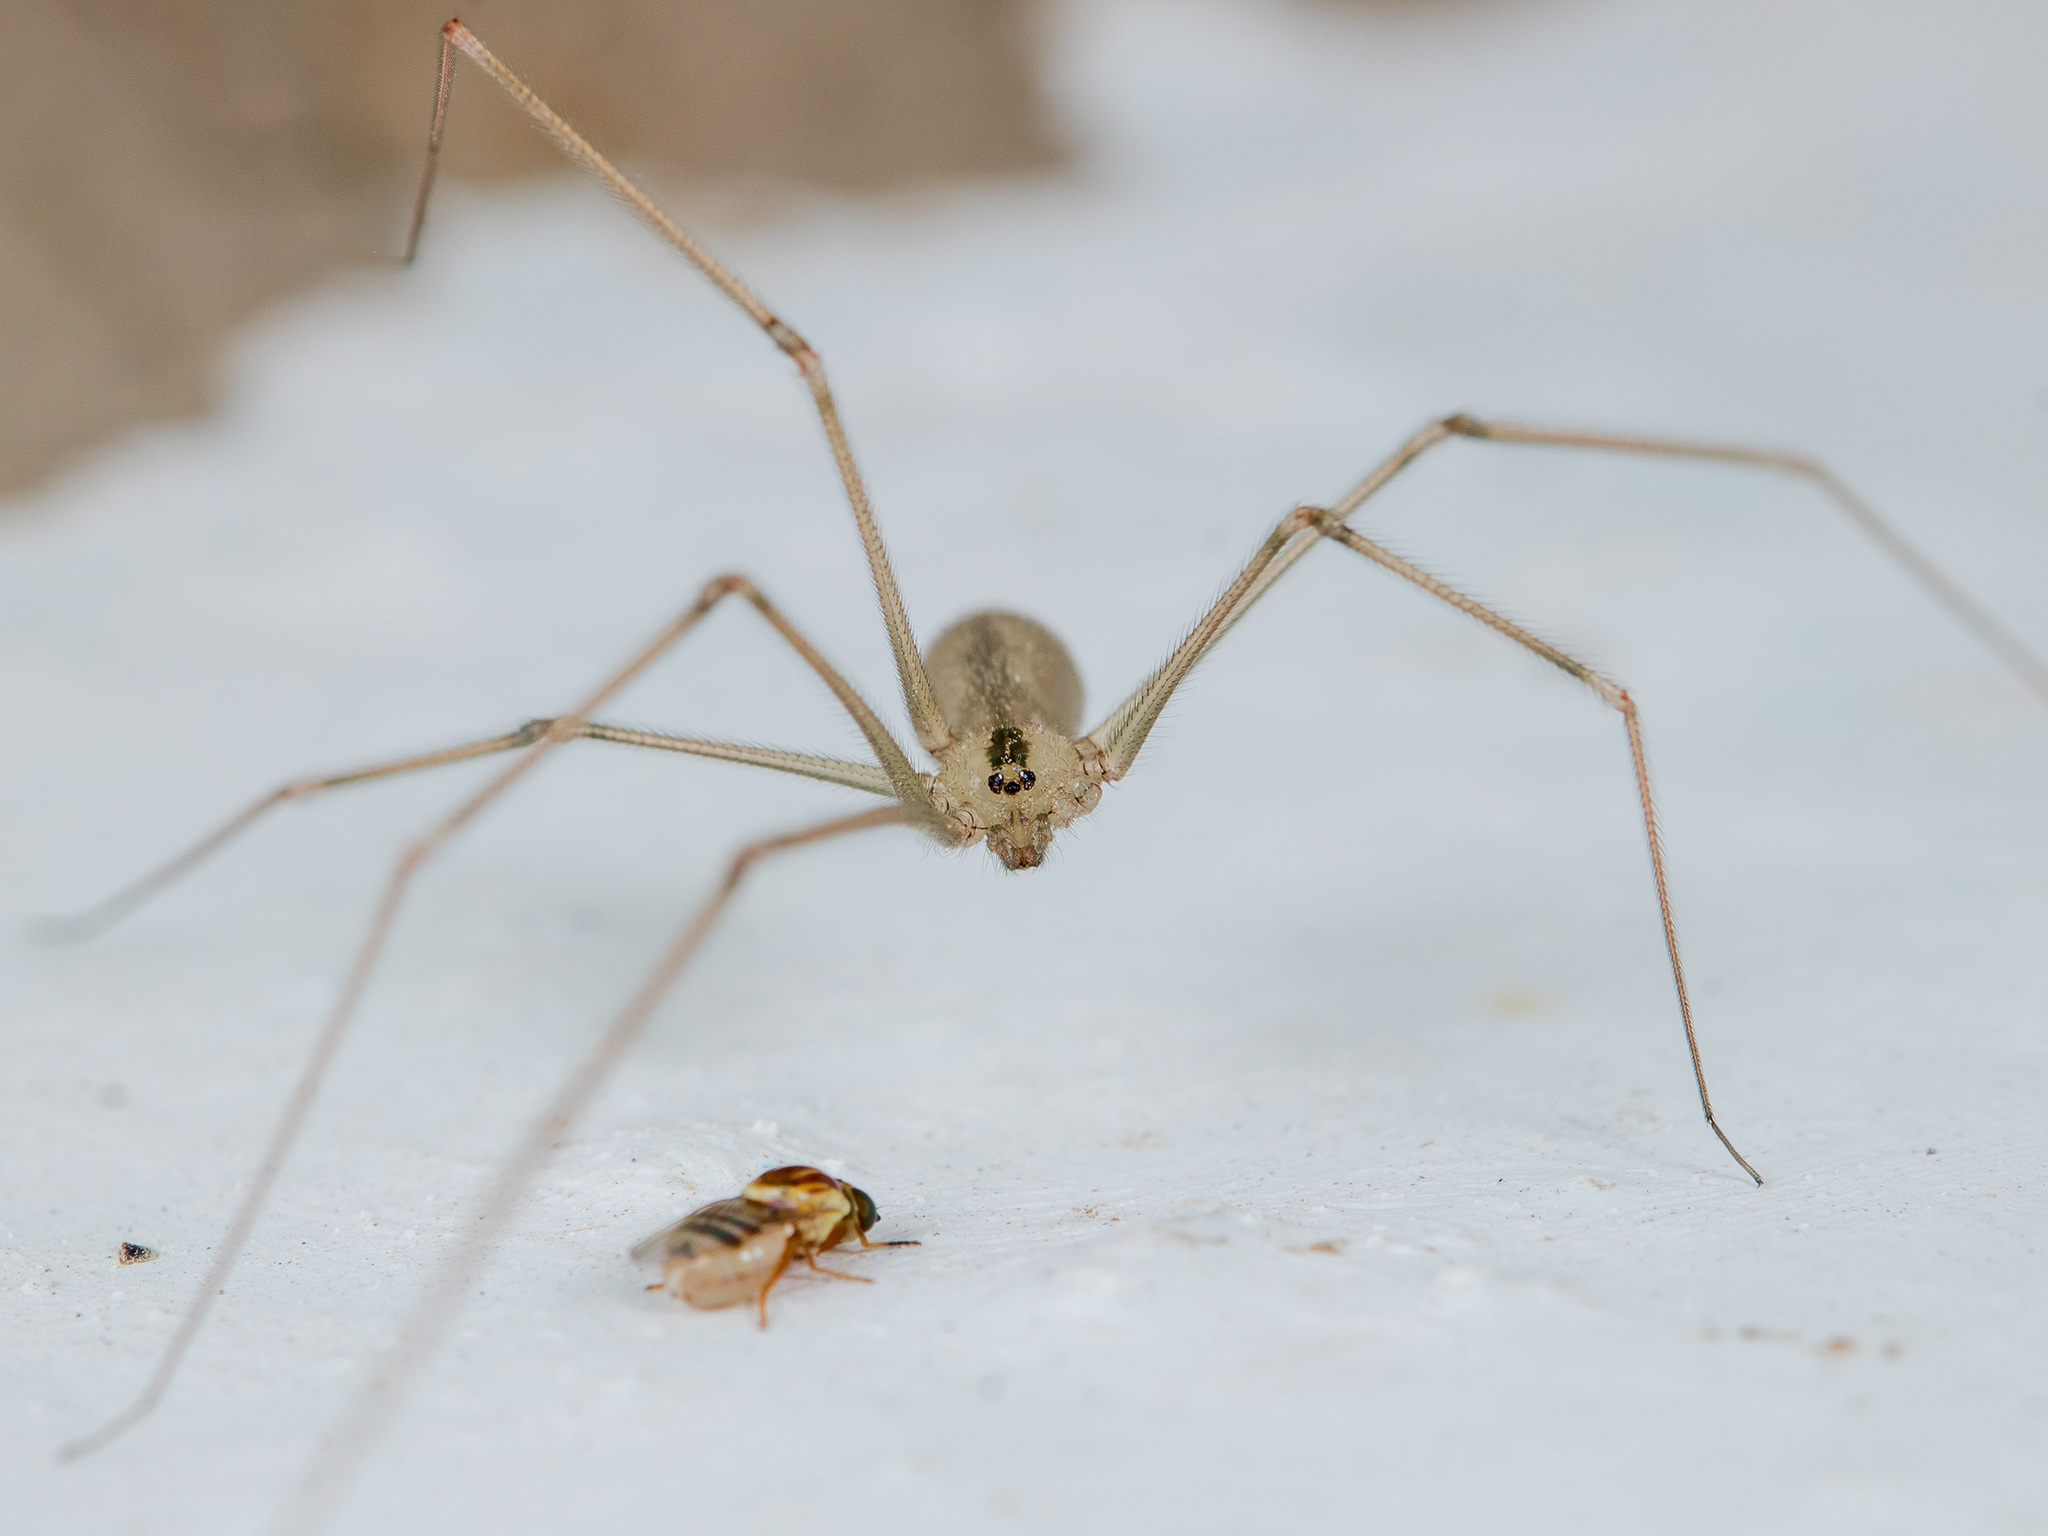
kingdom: Animalia
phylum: Arthropoda
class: Arachnida
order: Araneae
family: Pholcidae
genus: Pholcus
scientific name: Pholcus ponticus
